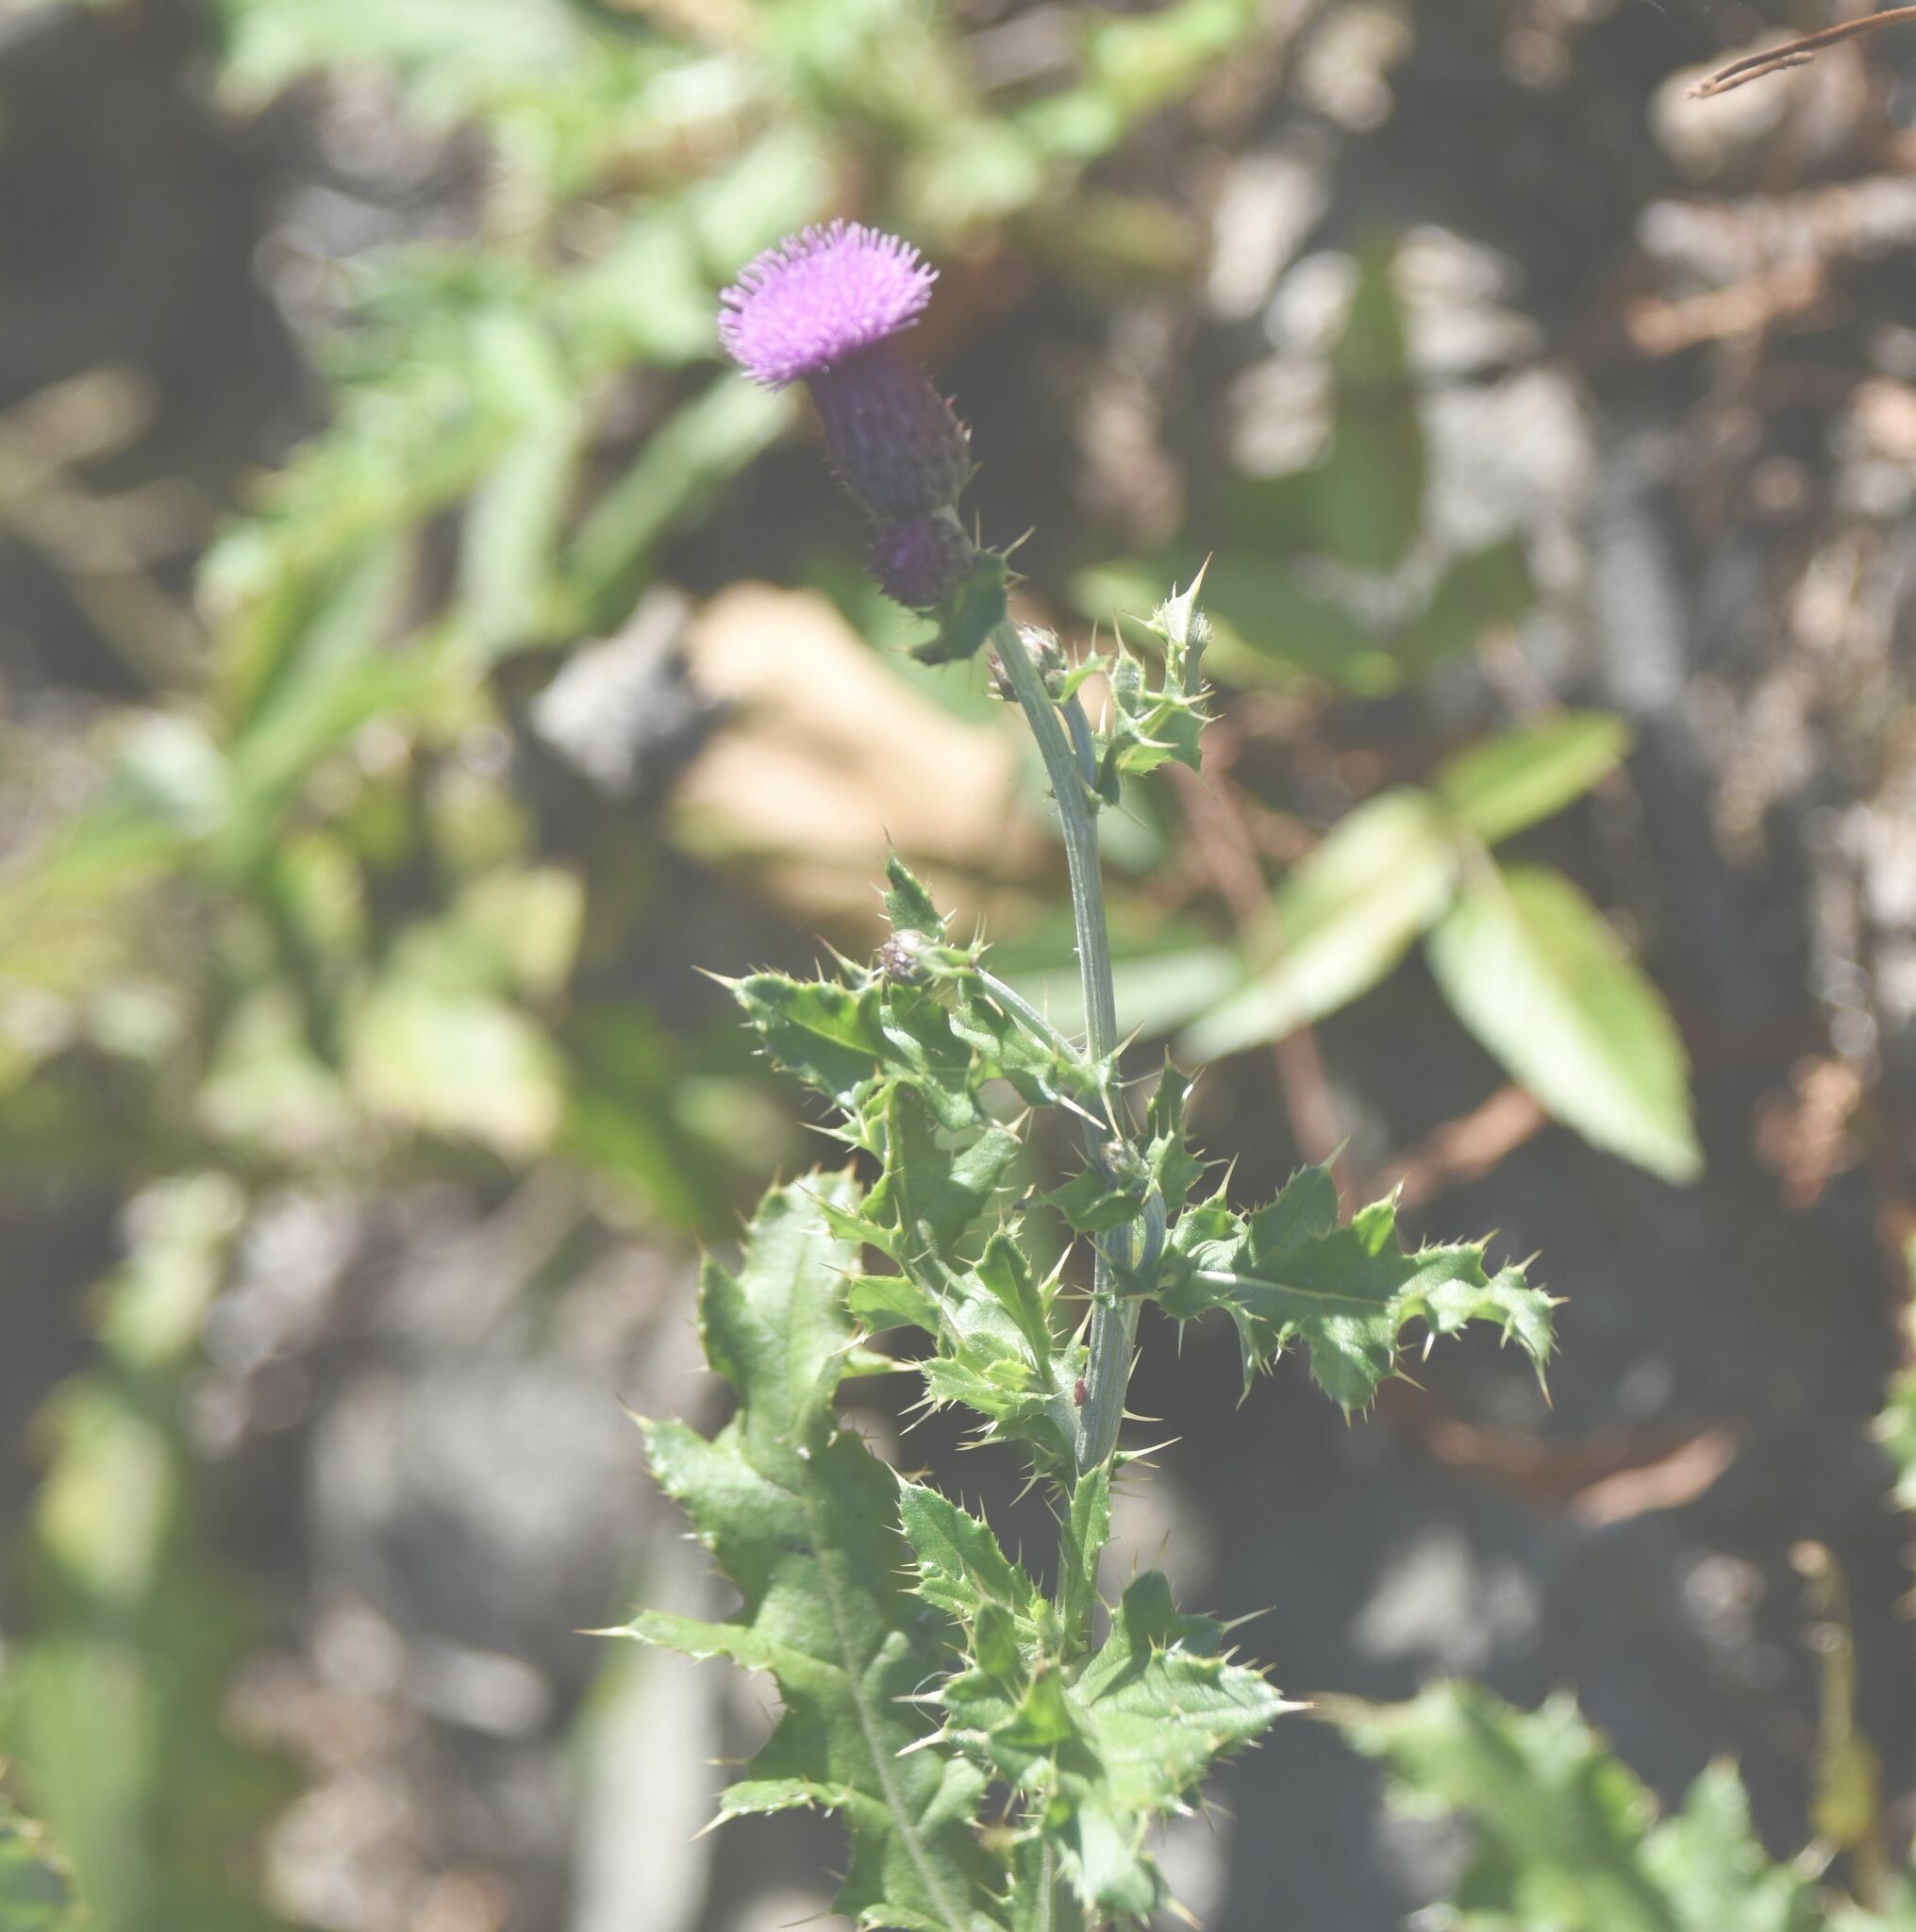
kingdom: Plantae
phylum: Tracheophyta
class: Magnoliopsida
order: Asterales
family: Asteraceae
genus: Cirsium
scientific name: Cirsium arvense
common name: Creeping thistle
